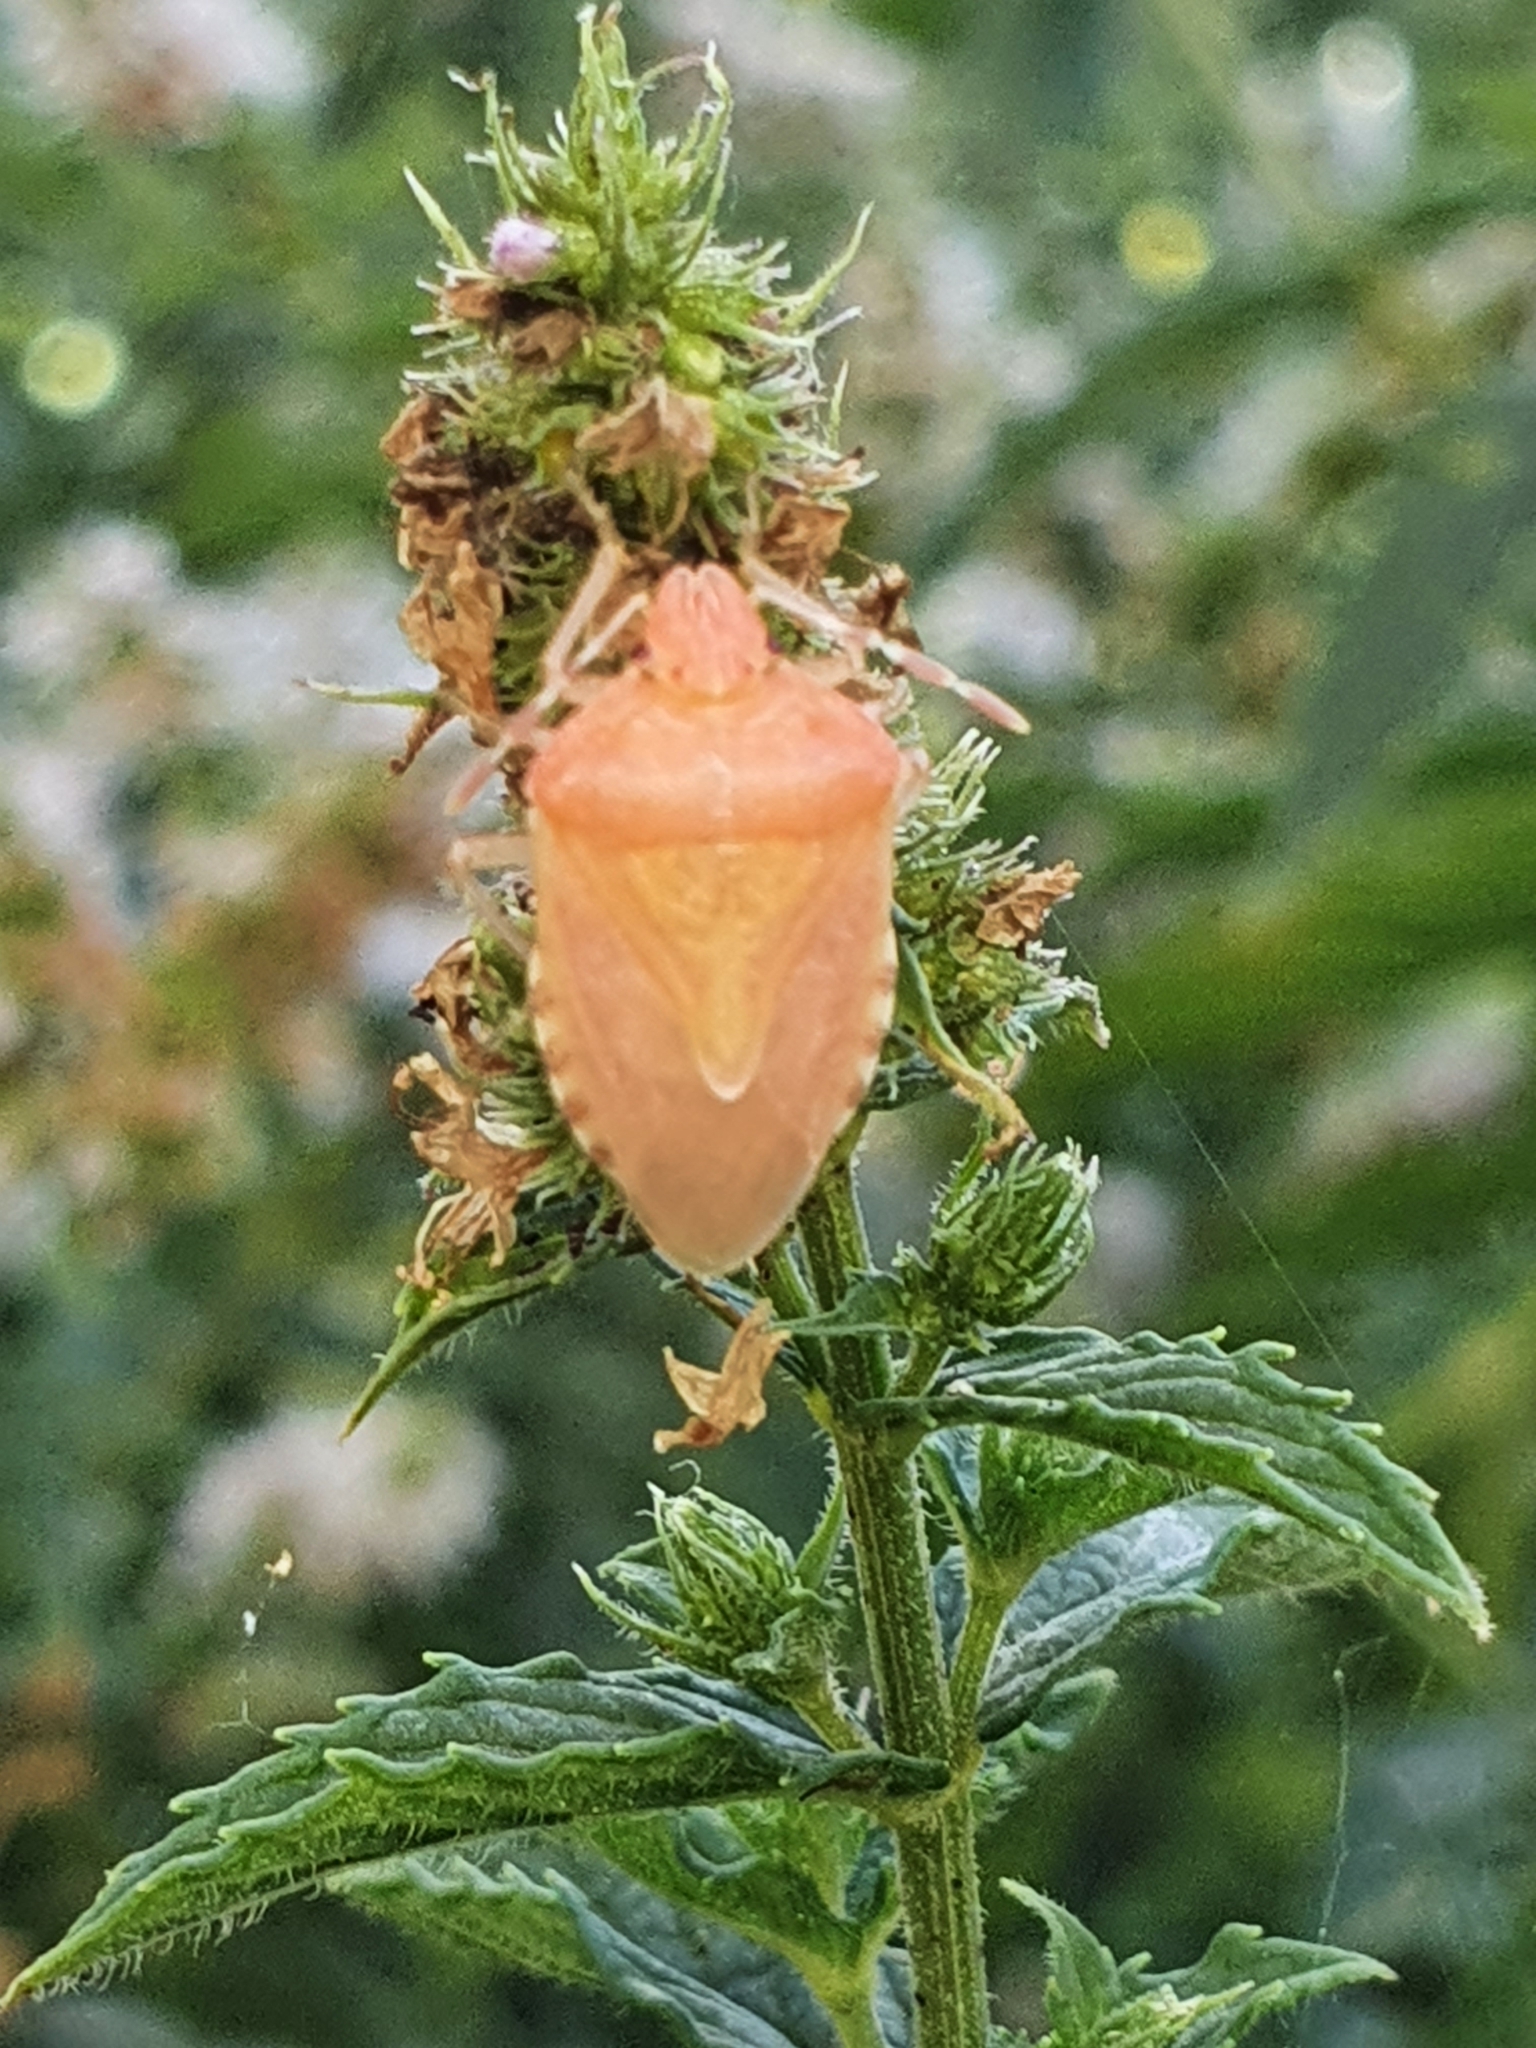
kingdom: Animalia
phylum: Arthropoda
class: Insecta
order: Hemiptera
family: Pentatomidae
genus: Dolycoris
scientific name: Dolycoris baccarum
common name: Sloe bug
